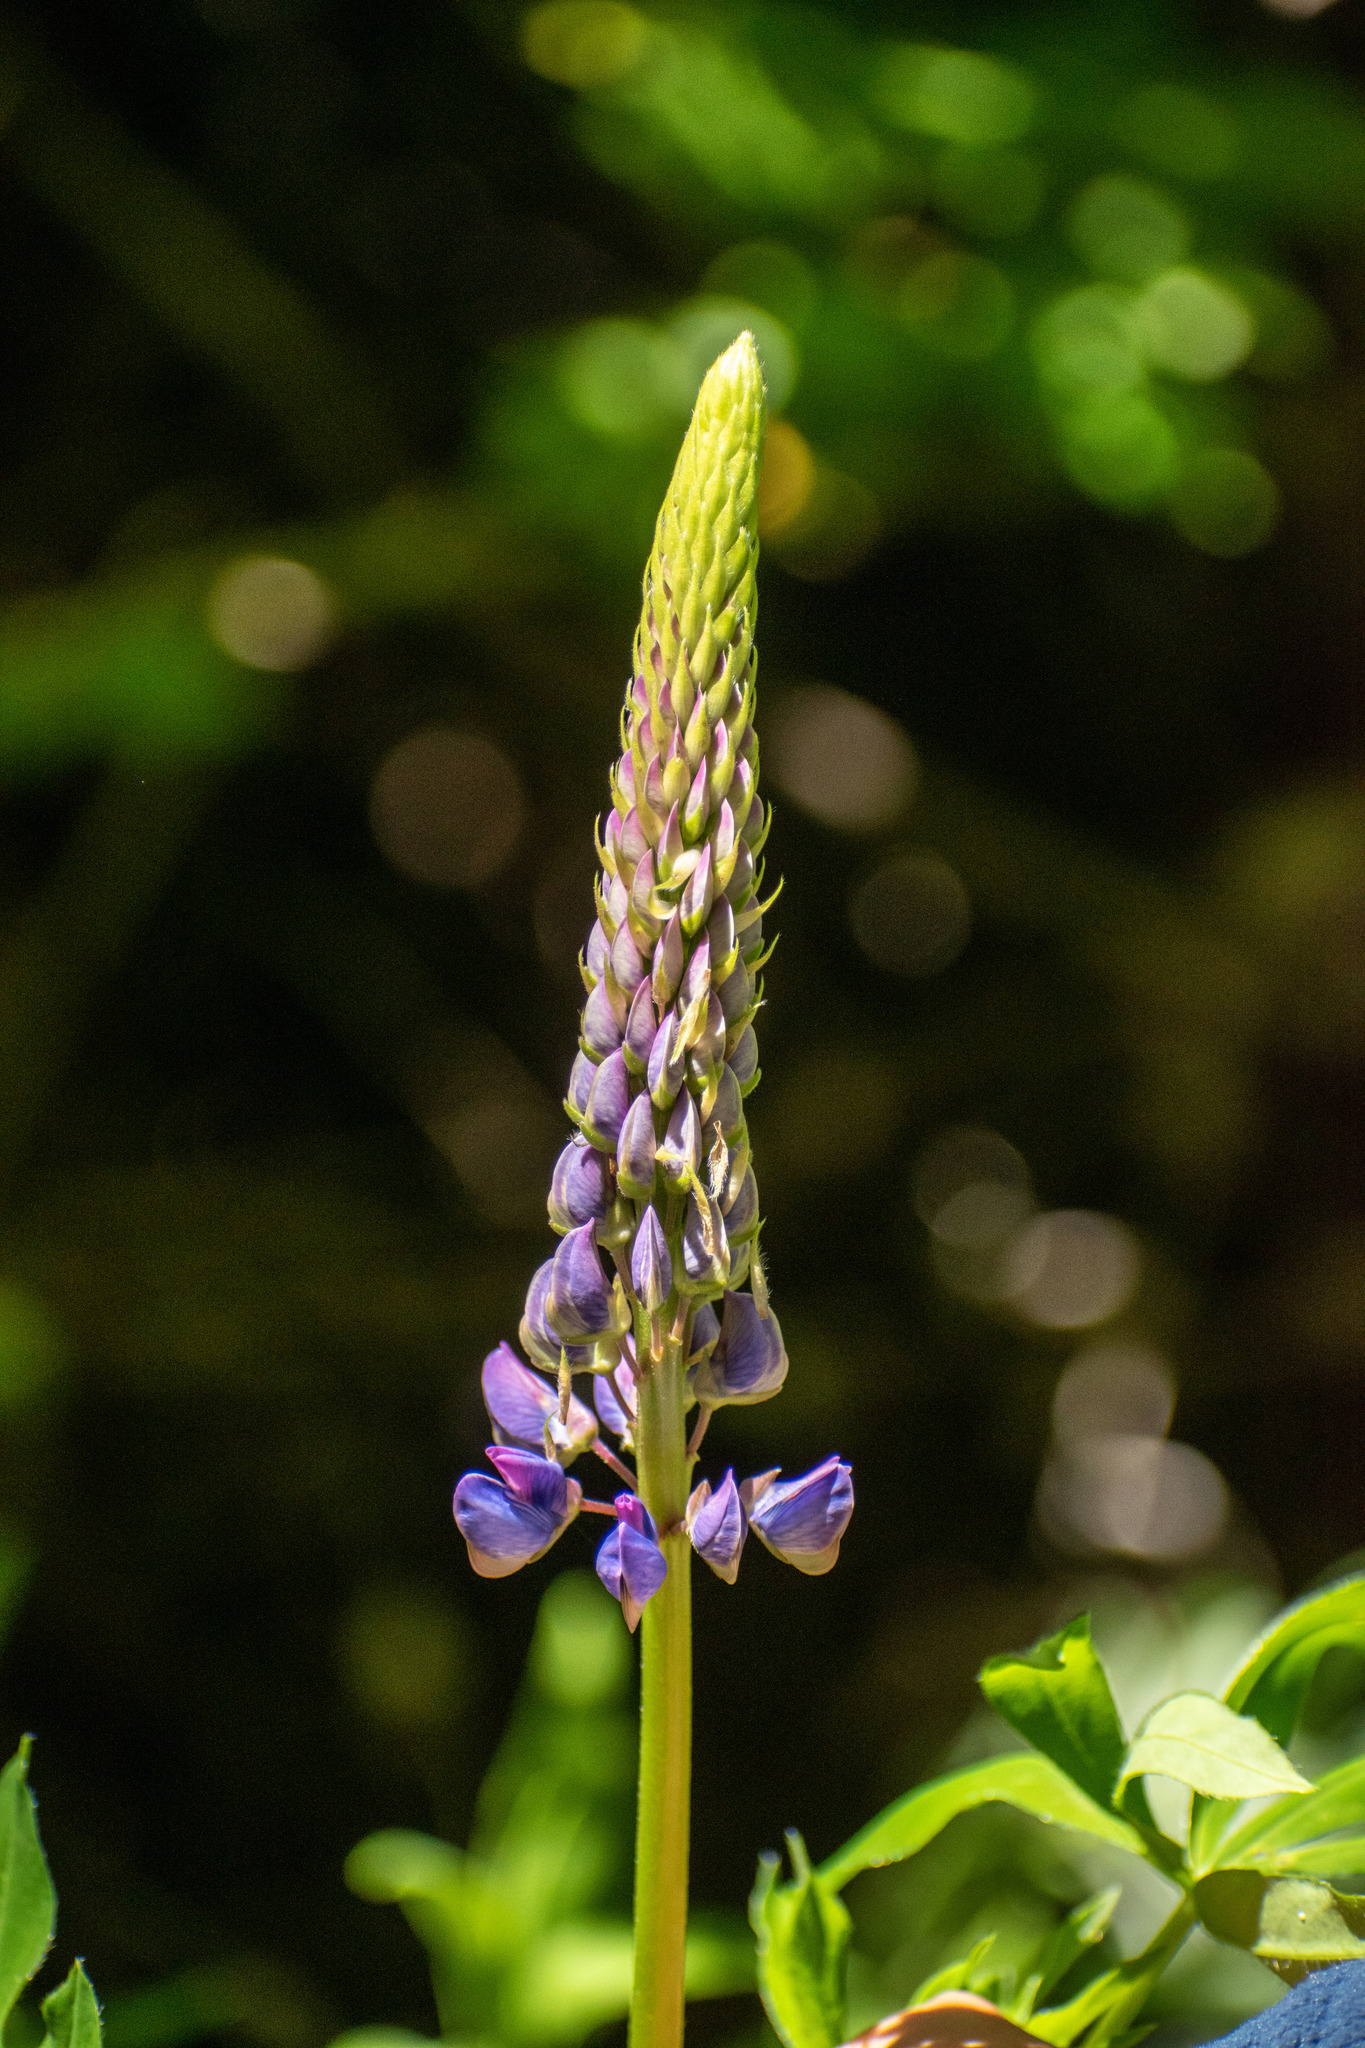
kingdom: Plantae
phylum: Tracheophyta
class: Magnoliopsida
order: Fabales
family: Fabaceae
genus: Lupinus
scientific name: Lupinus polyphyllus
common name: Garden lupin
